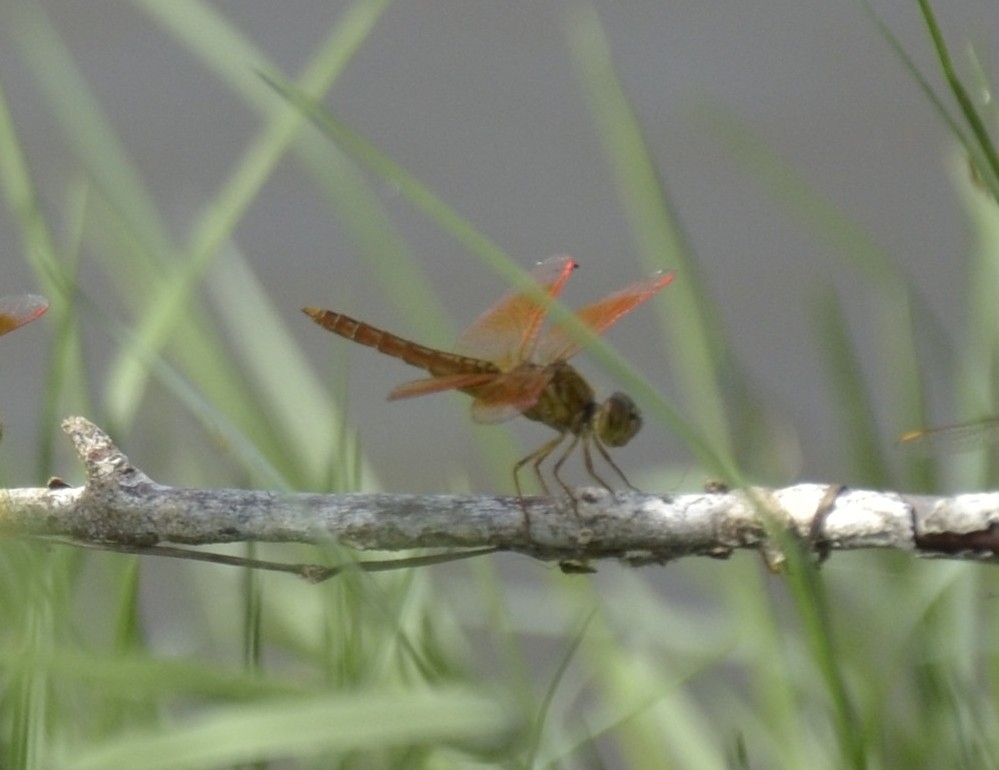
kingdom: Animalia
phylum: Arthropoda
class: Insecta
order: Odonata
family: Libellulidae
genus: Brachythemis
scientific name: Brachythemis contaminata
